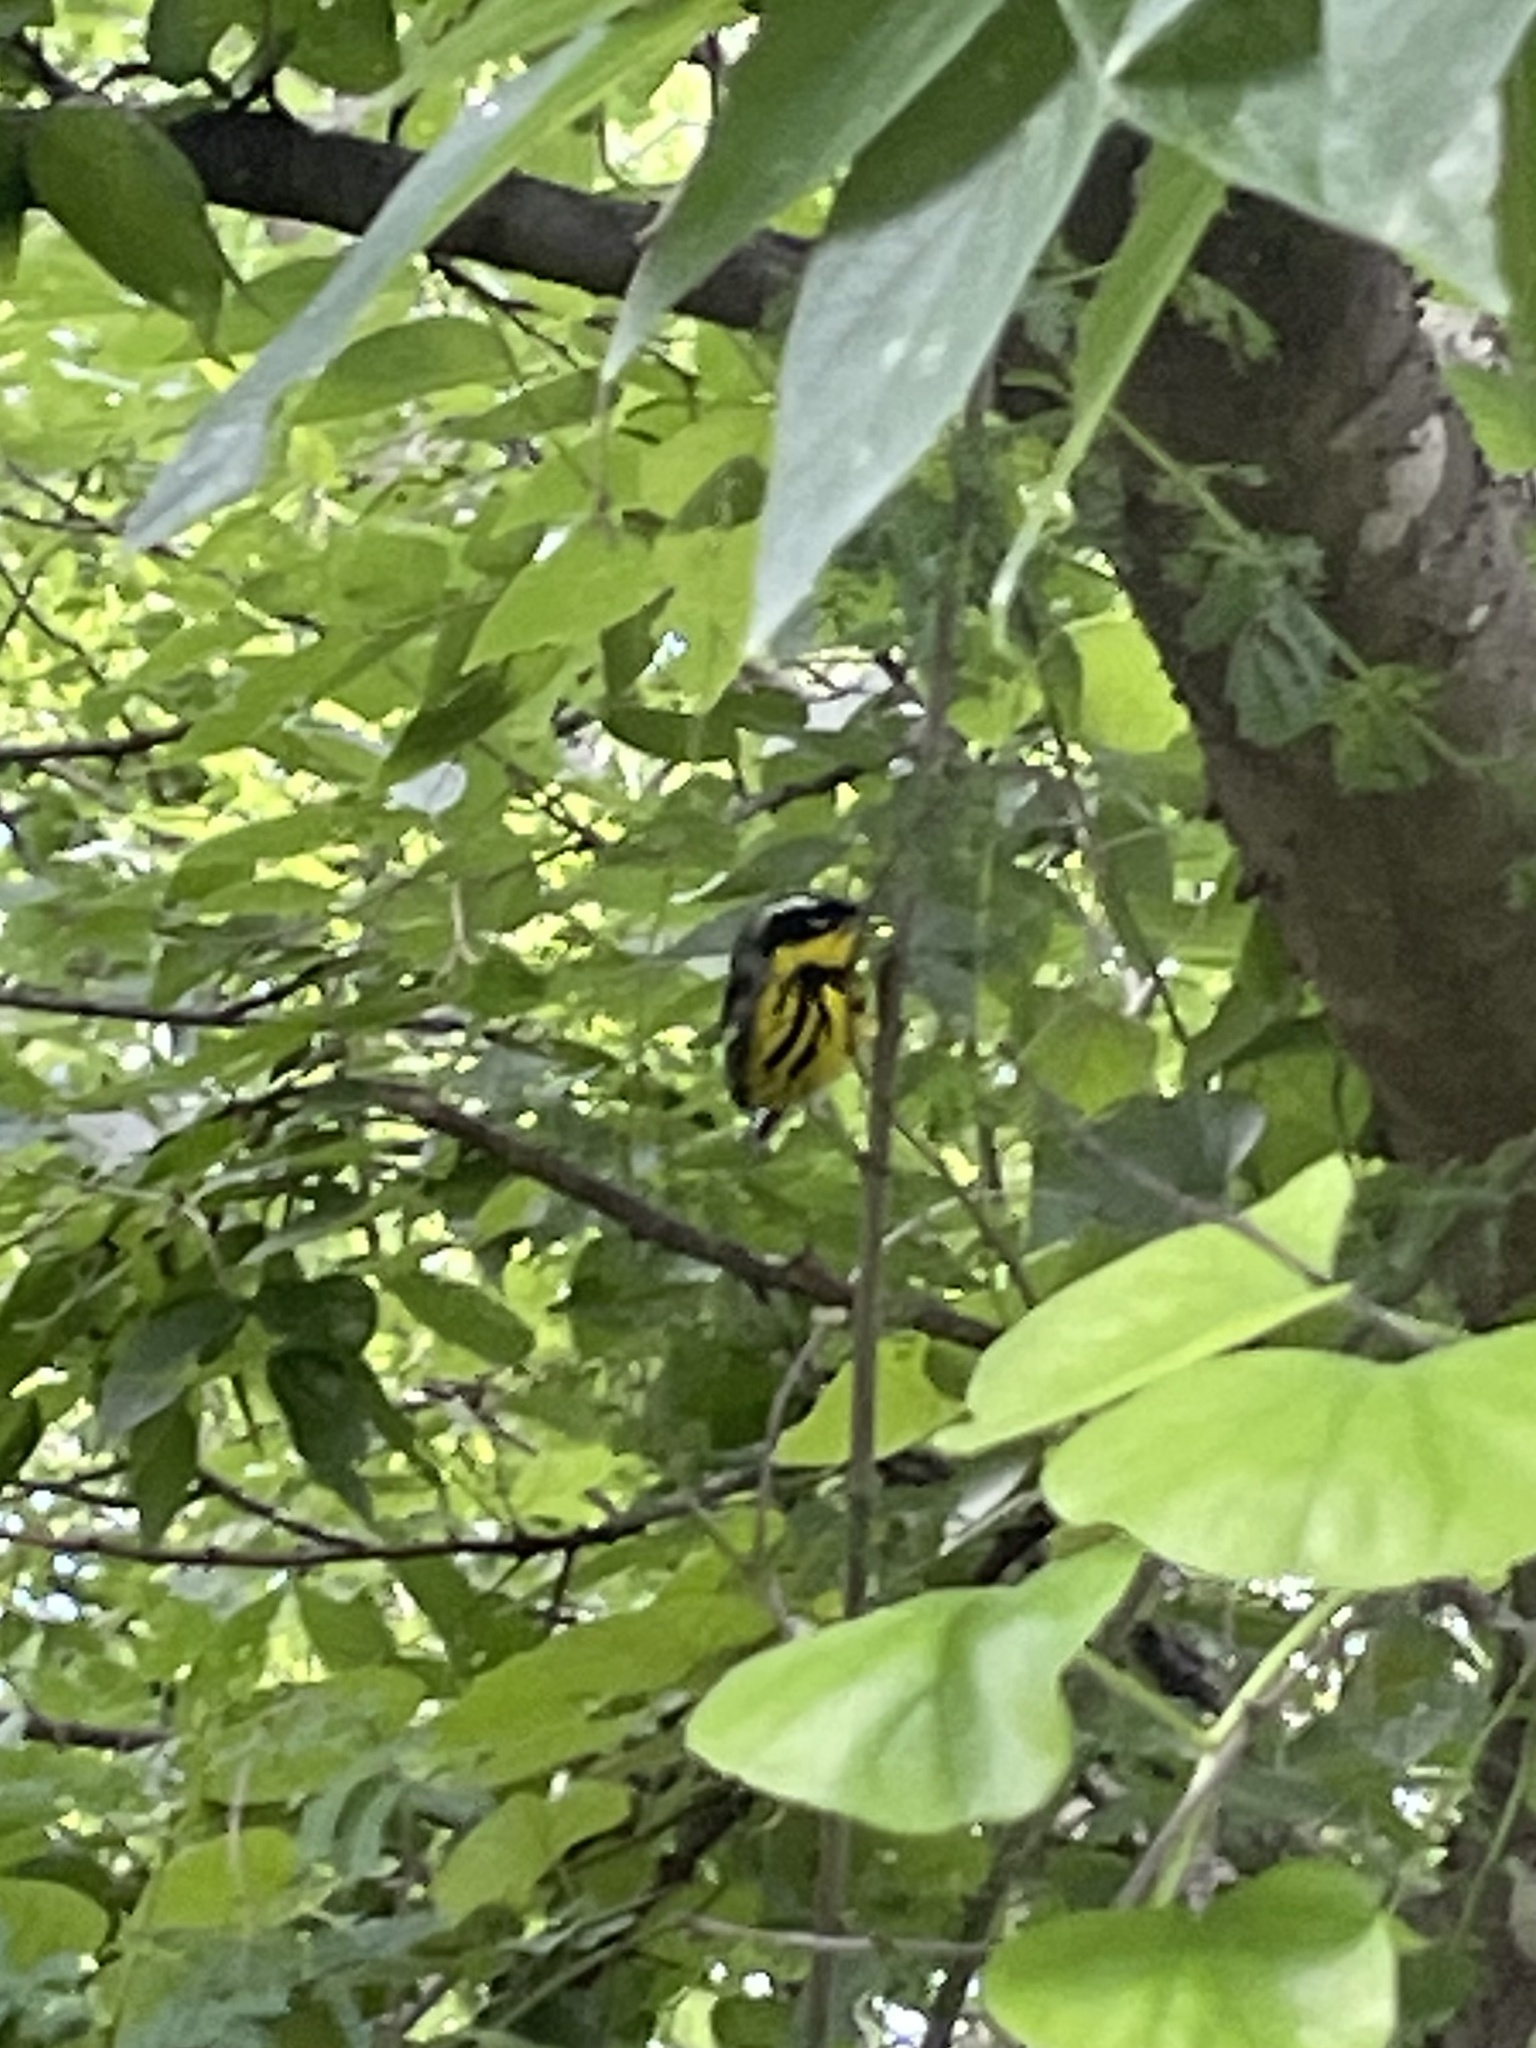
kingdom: Animalia
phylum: Chordata
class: Aves
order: Passeriformes
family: Parulidae
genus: Setophaga
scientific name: Setophaga magnolia
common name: Magnolia warbler
